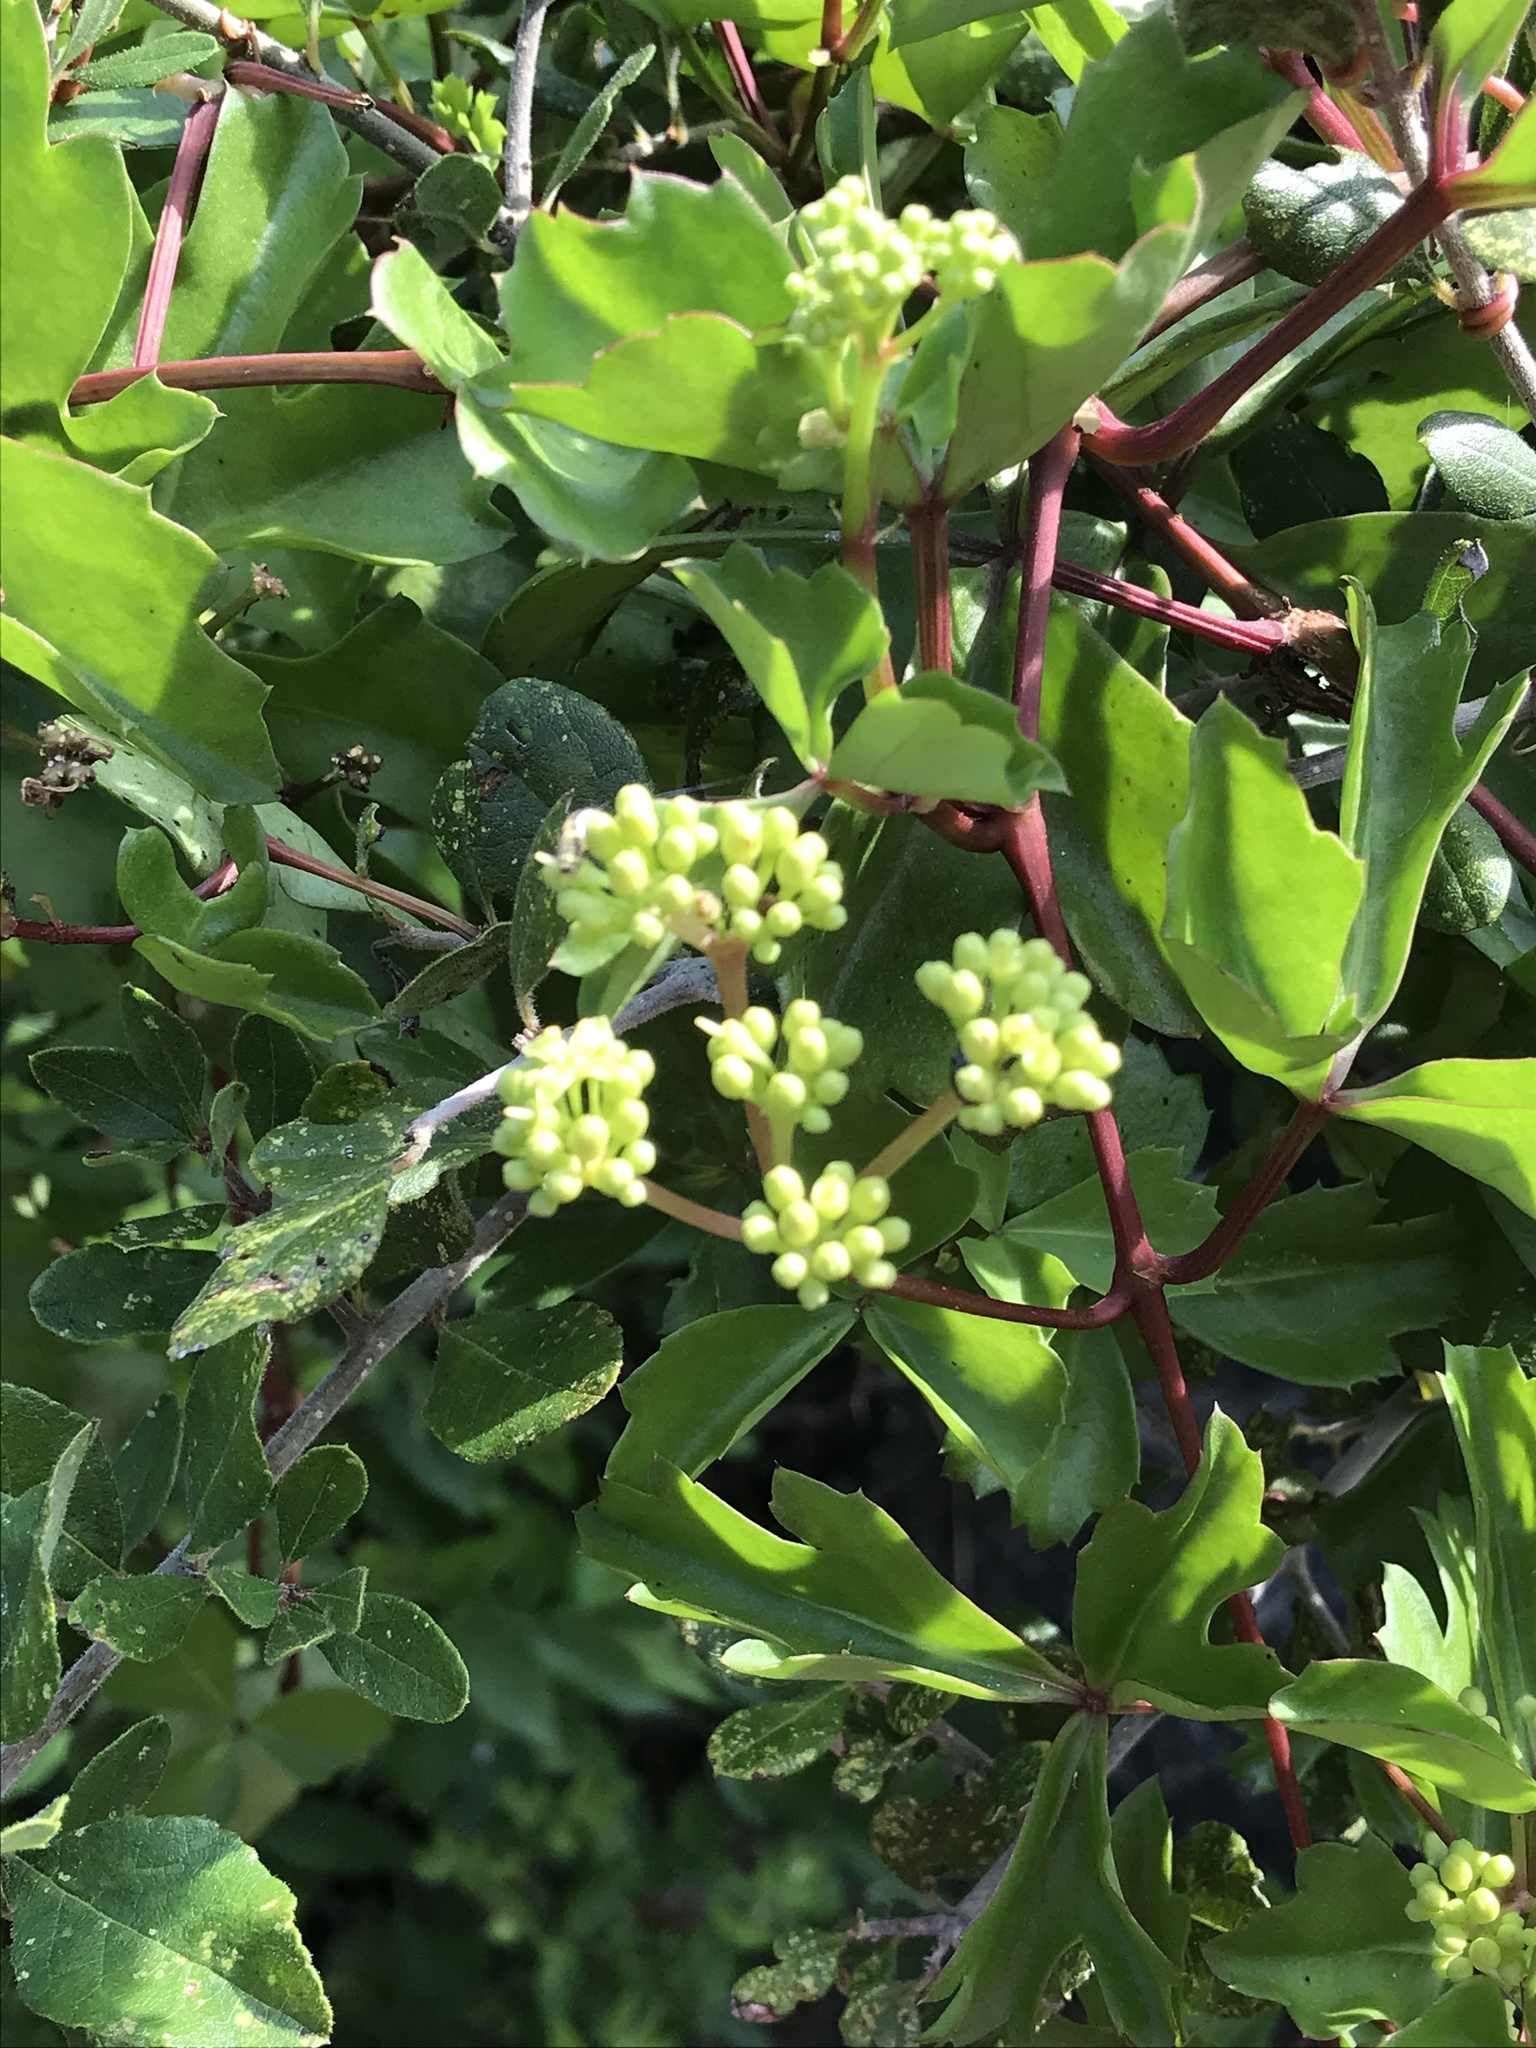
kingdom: Plantae
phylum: Tracheophyta
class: Magnoliopsida
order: Vitales
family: Vitaceae
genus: Cissus
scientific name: Cissus trifoliata
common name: Vine-sorrel
